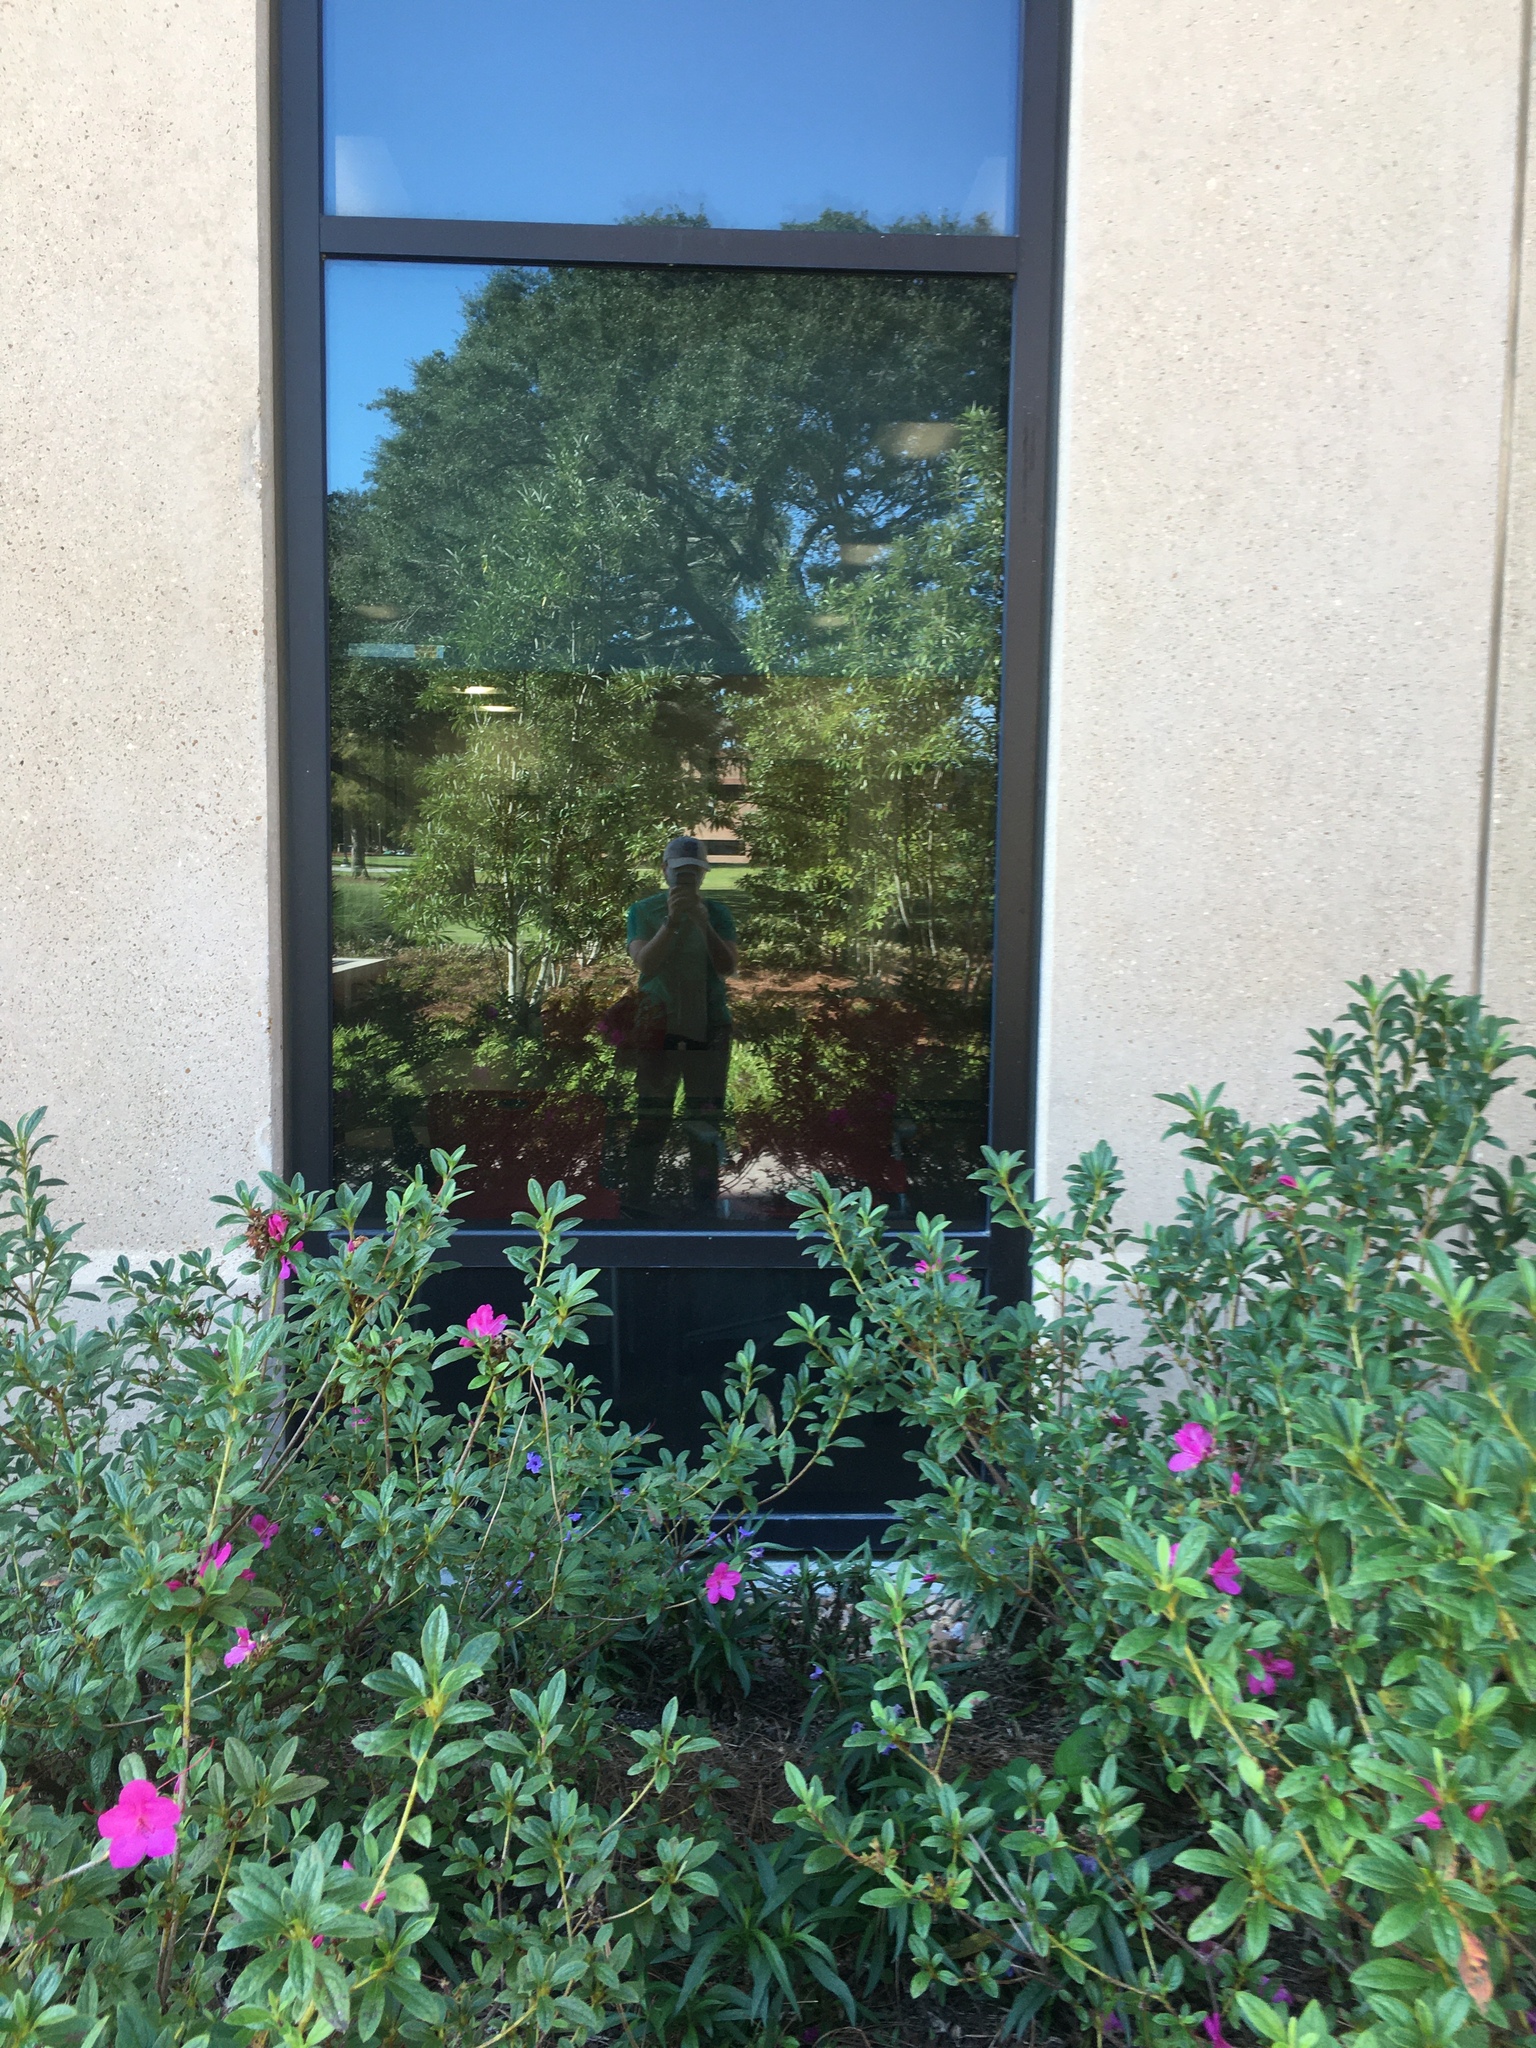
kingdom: Animalia
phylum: Chordata
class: Aves
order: Passeriformes
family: Parulidae
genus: Geothlypis
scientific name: Geothlypis trichas
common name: Common yellowthroat
